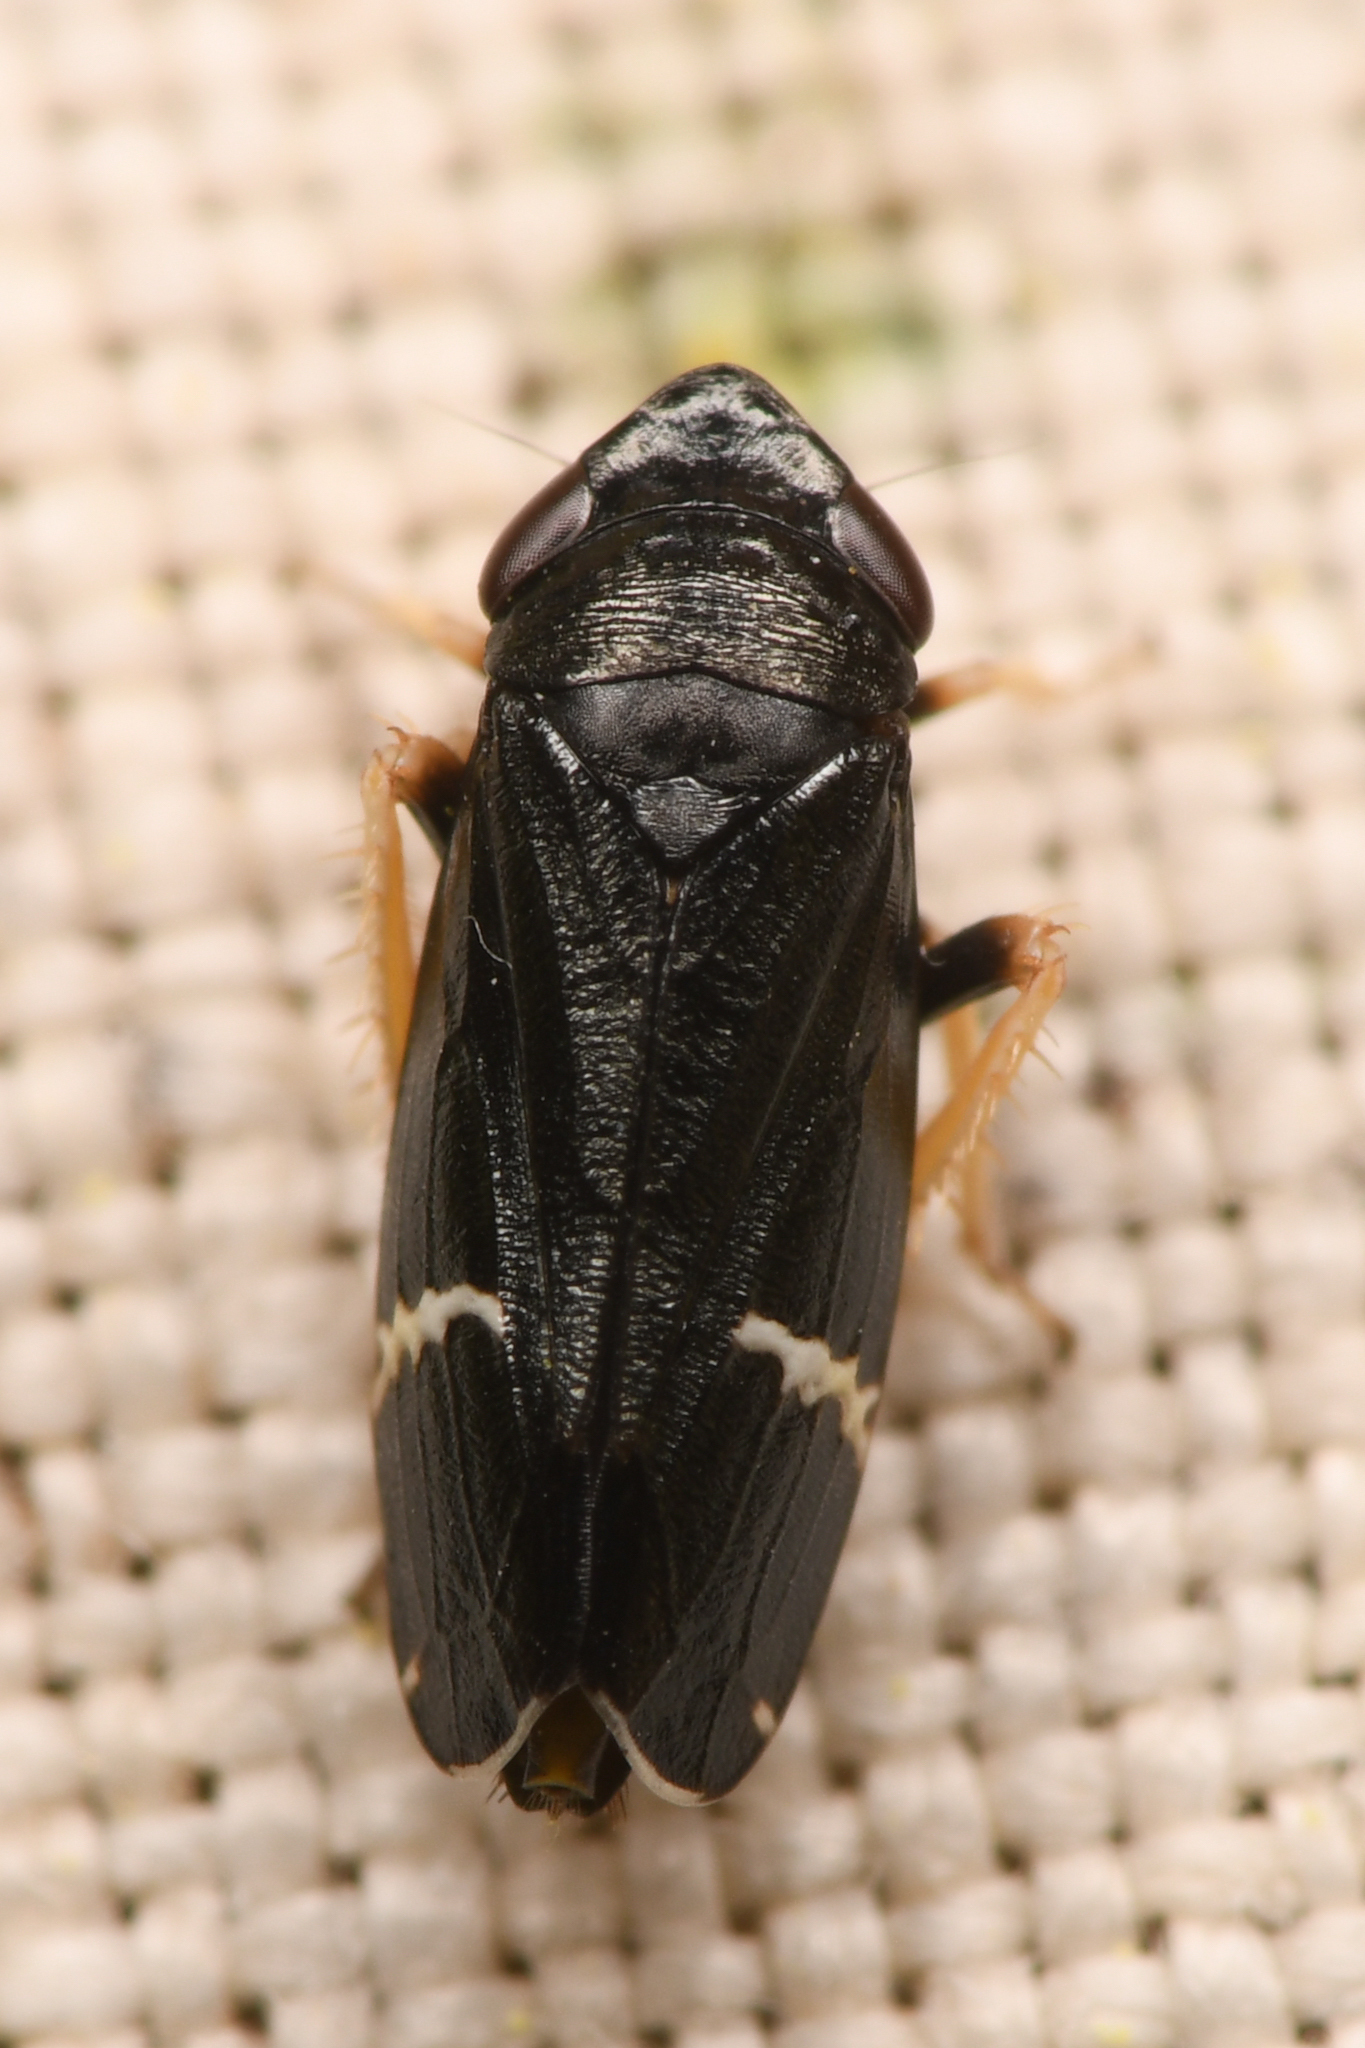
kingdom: Animalia
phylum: Arthropoda
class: Insecta
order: Hemiptera
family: Cicadellidae
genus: Cochlorhinus
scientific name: Cochlorhinus stygicus
